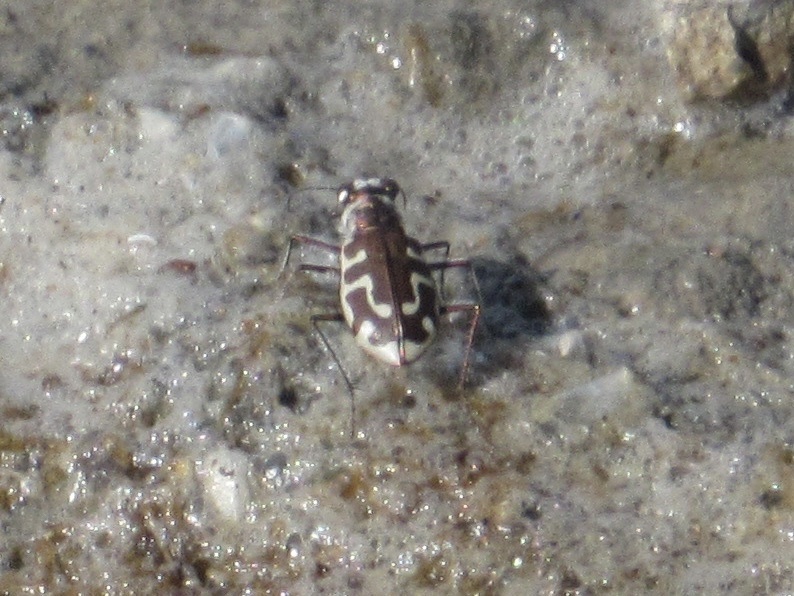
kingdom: Animalia
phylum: Arthropoda
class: Insecta
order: Coleoptera
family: Carabidae
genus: Cicindela
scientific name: Cicindela hirticollis
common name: Hairy-necked tiger beetle
